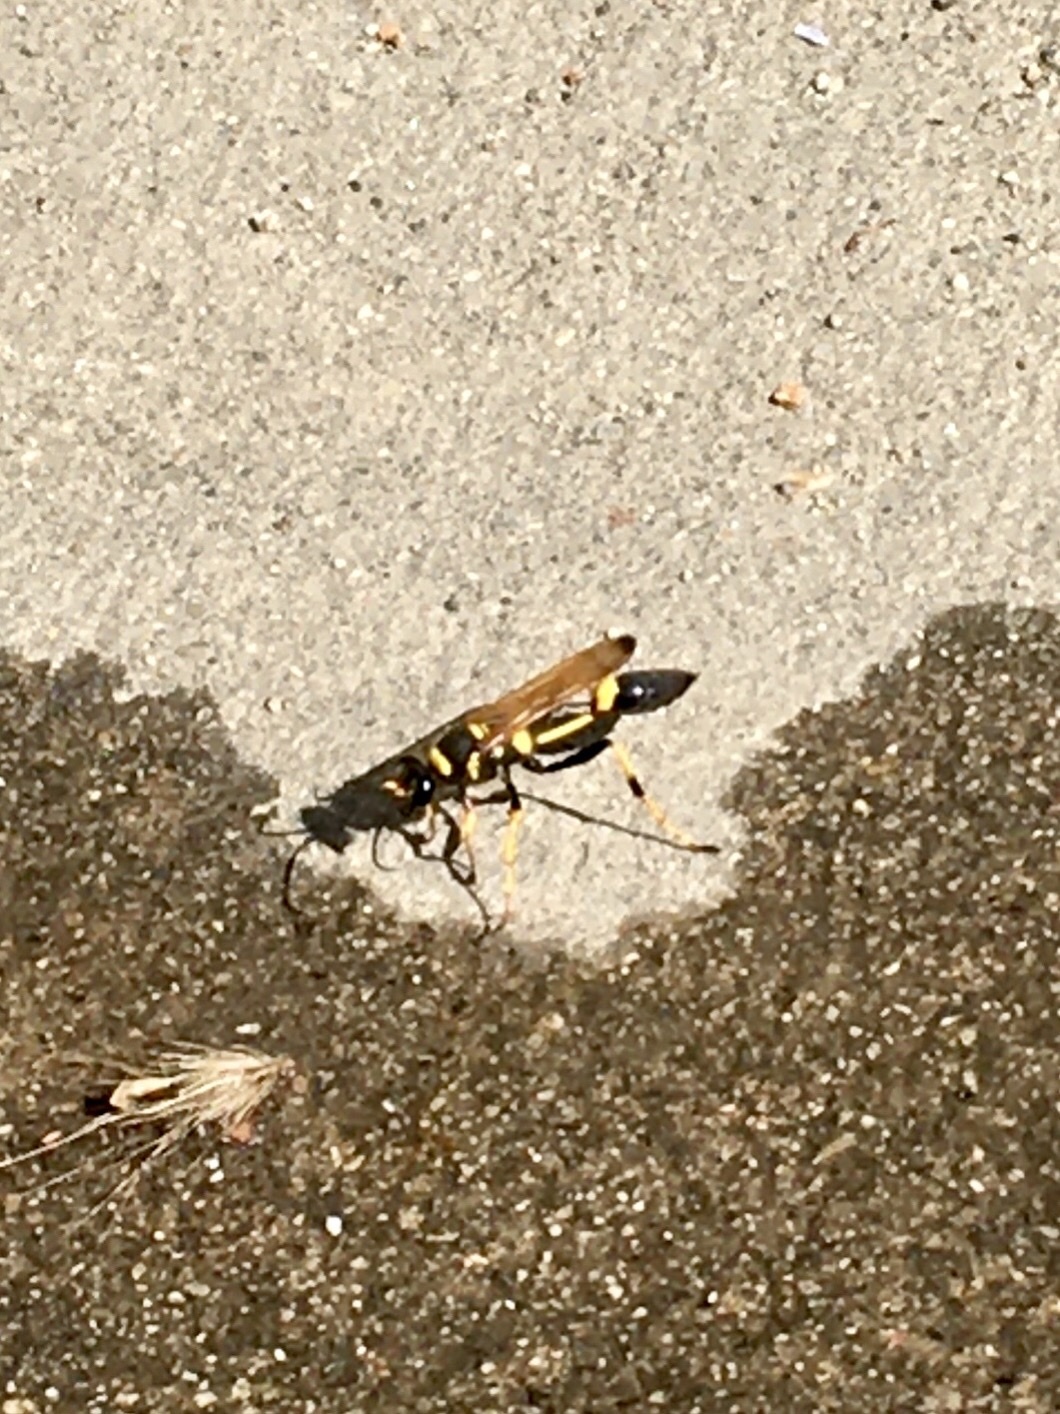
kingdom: Animalia
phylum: Arthropoda
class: Insecta
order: Hymenoptera
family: Sphecidae
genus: Sceliphron
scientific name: Sceliphron caementarium
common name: Mud dauber
